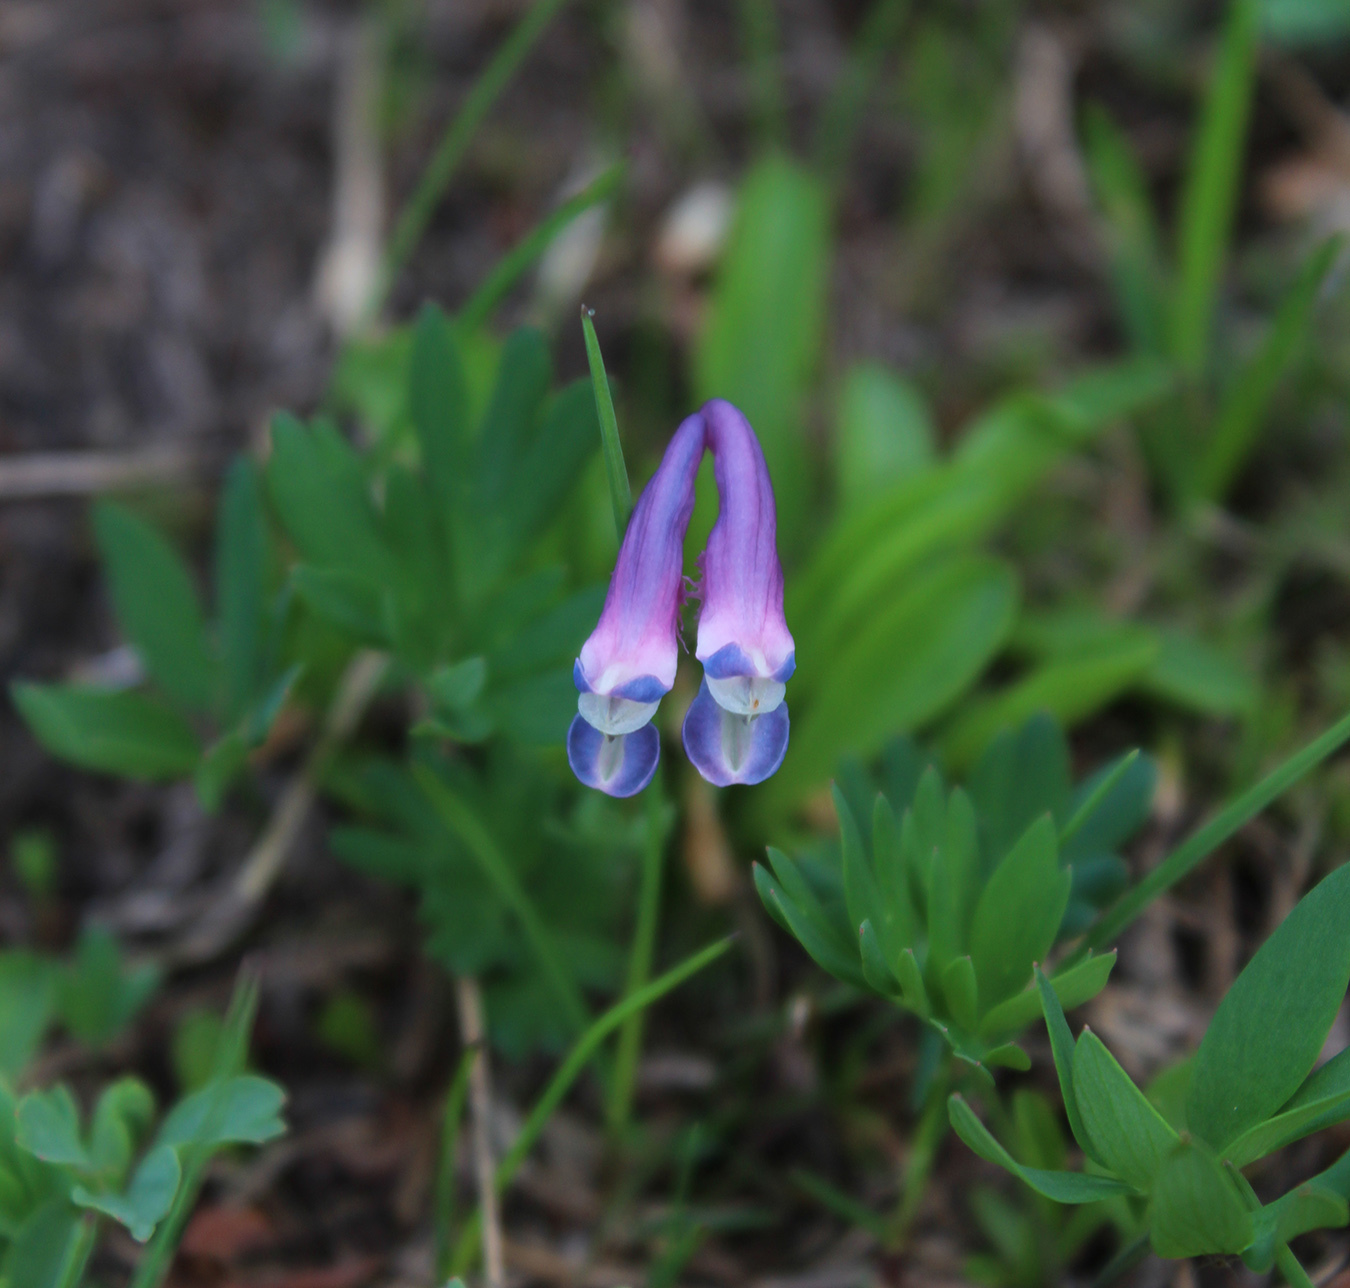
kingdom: Plantae
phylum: Tracheophyta
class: Magnoliopsida
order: Ranunculales
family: Papaveraceae
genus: Corydalis
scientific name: Corydalis conorhiza
